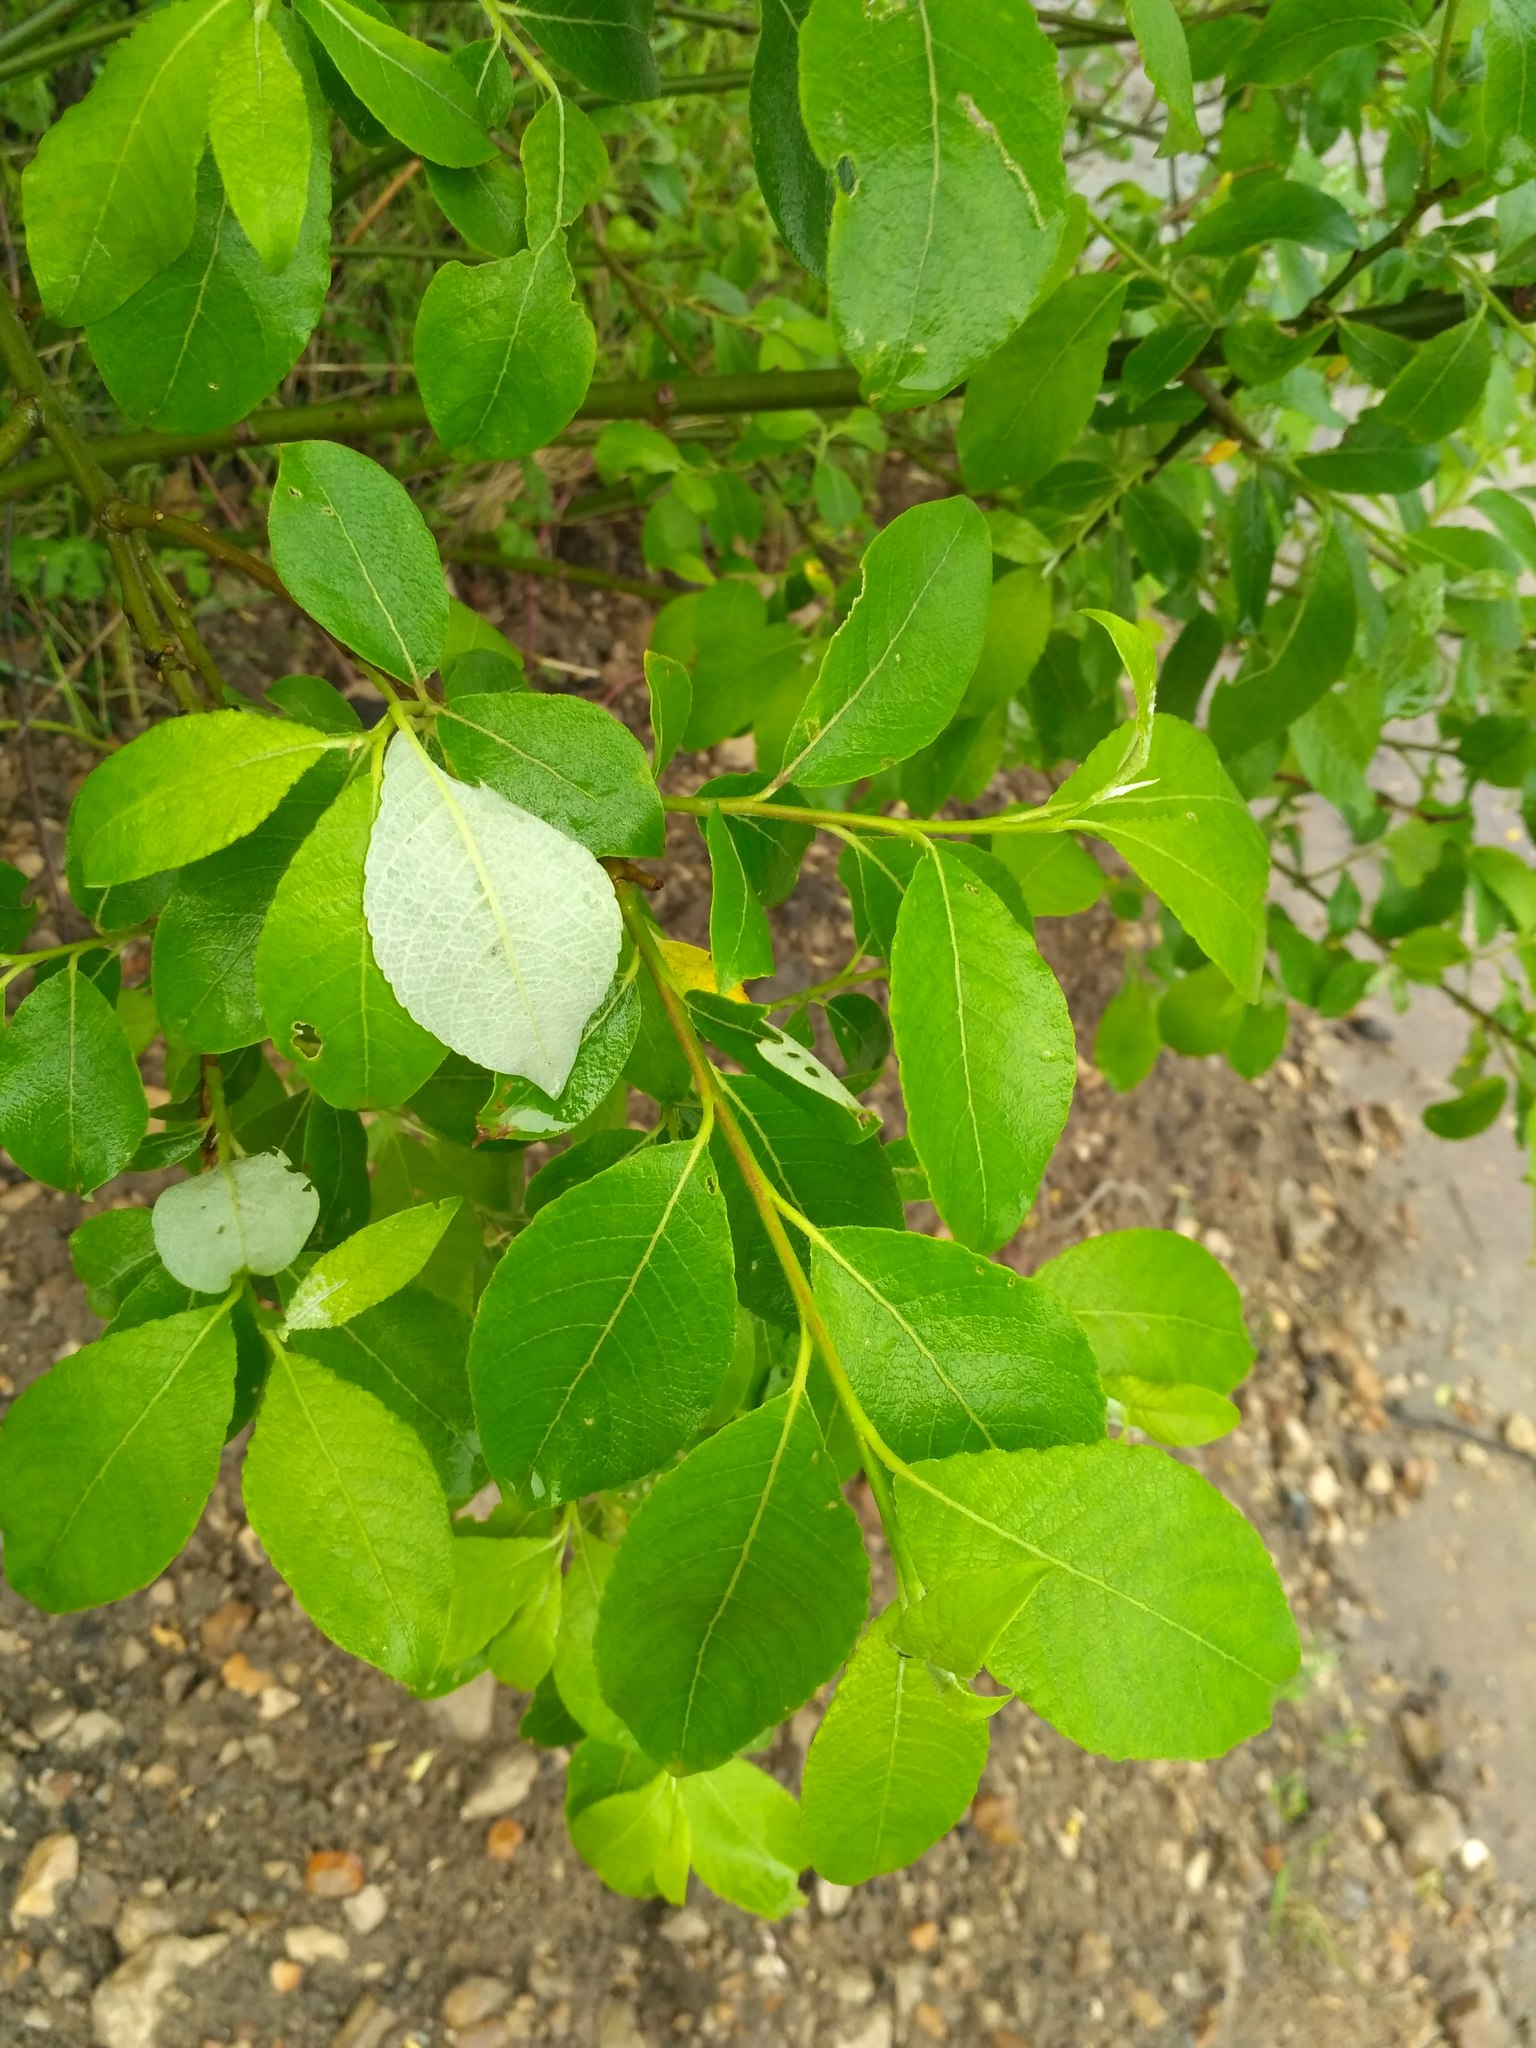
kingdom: Plantae
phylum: Tracheophyta
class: Magnoliopsida
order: Malpighiales
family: Salicaceae
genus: Salix
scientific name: Salix caprea
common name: Goat willow
